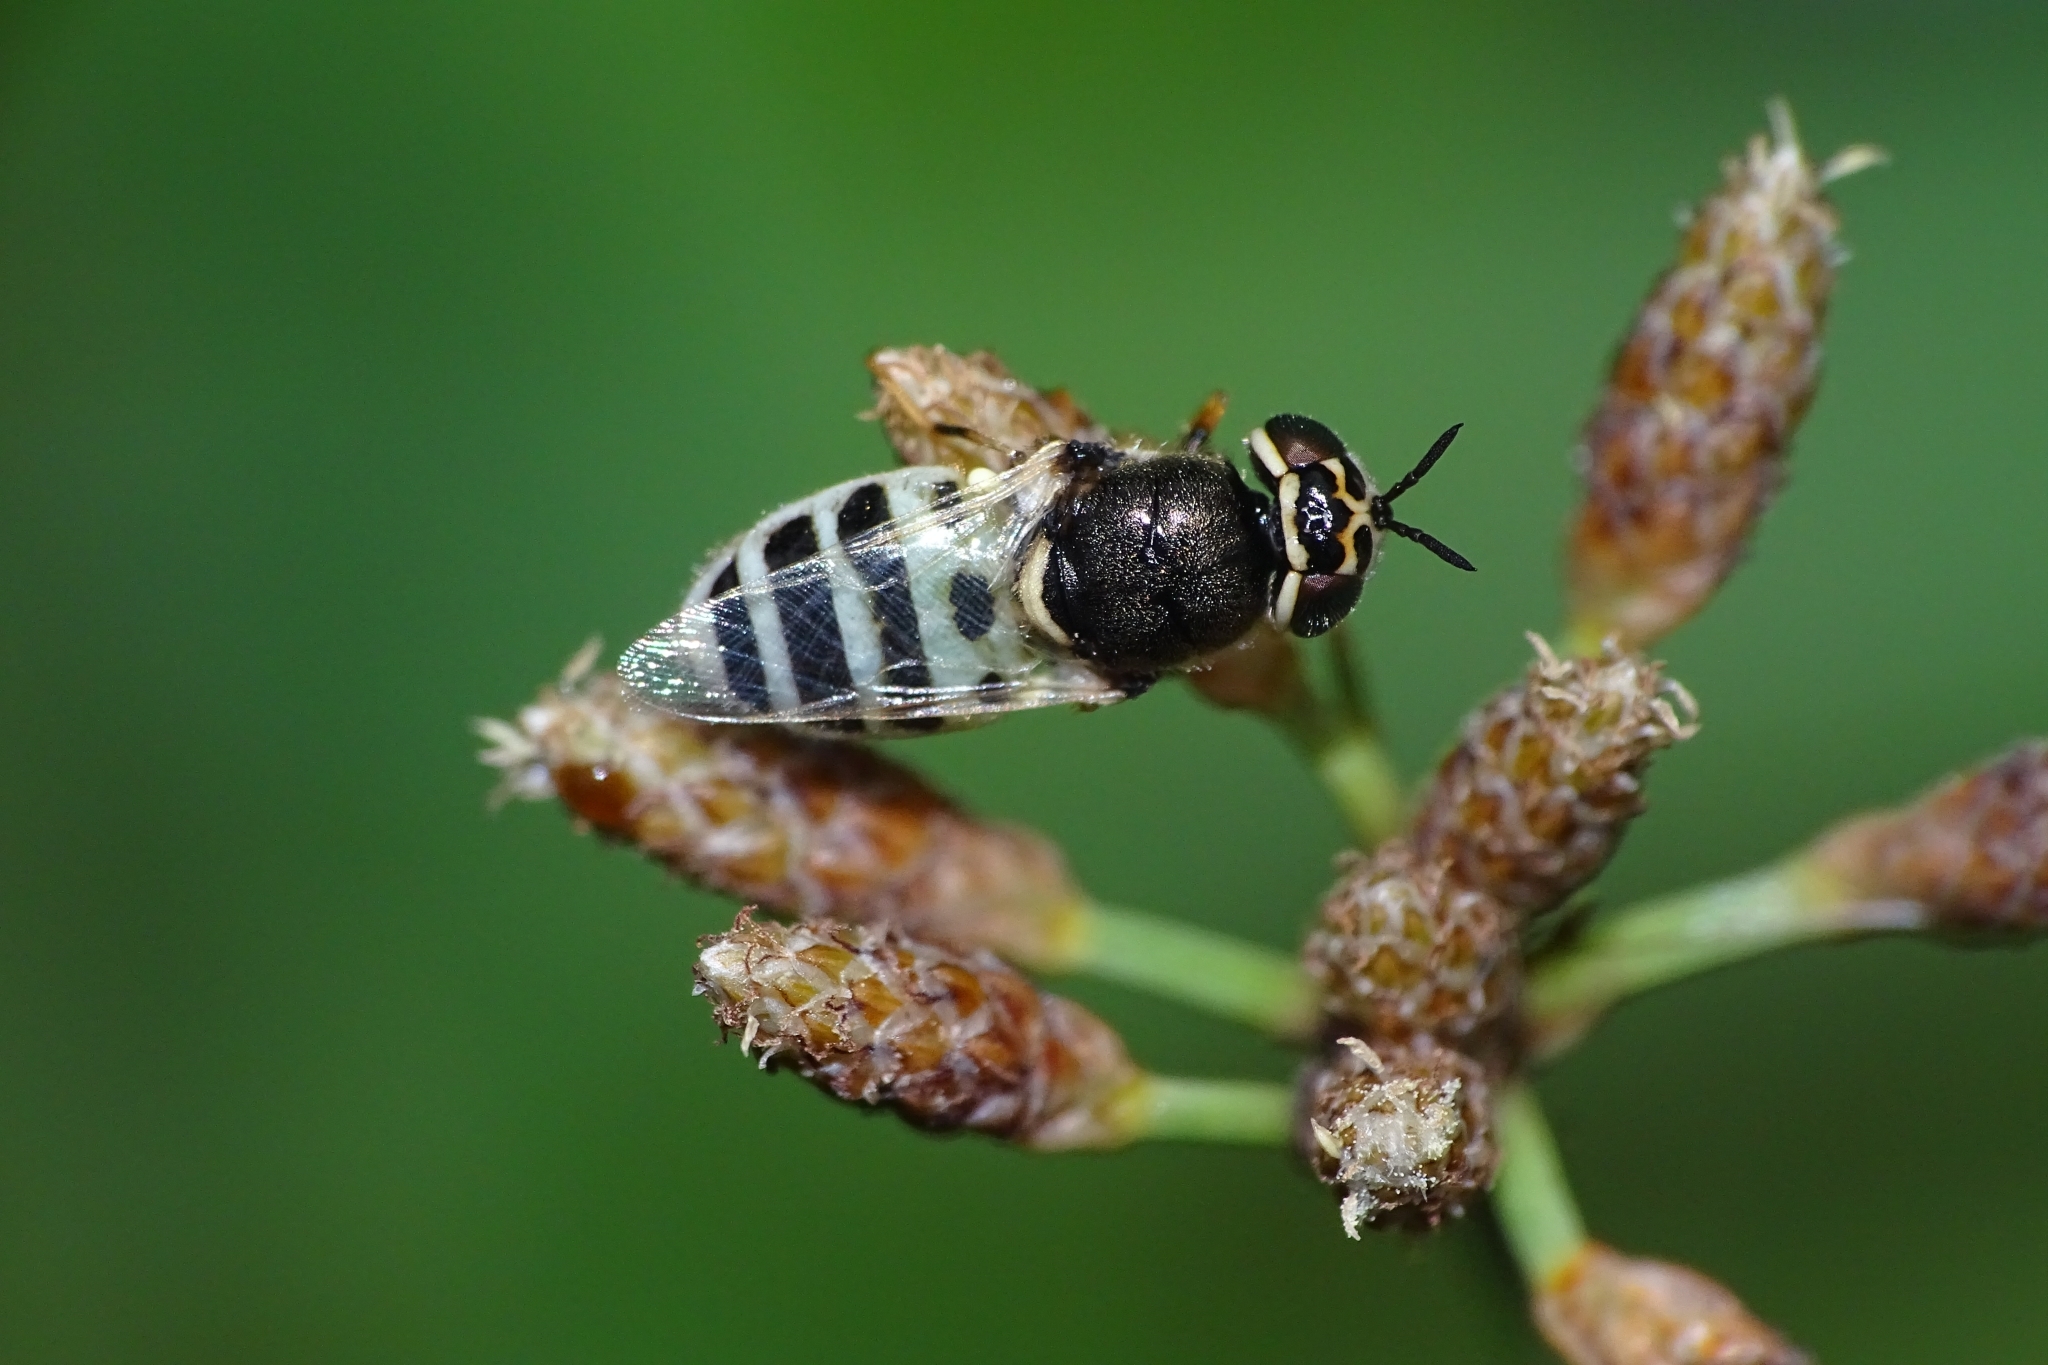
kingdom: Animalia
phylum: Arthropoda
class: Insecta
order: Diptera
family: Stratiomyidae
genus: Oplodontha
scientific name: Oplodontha minuta
